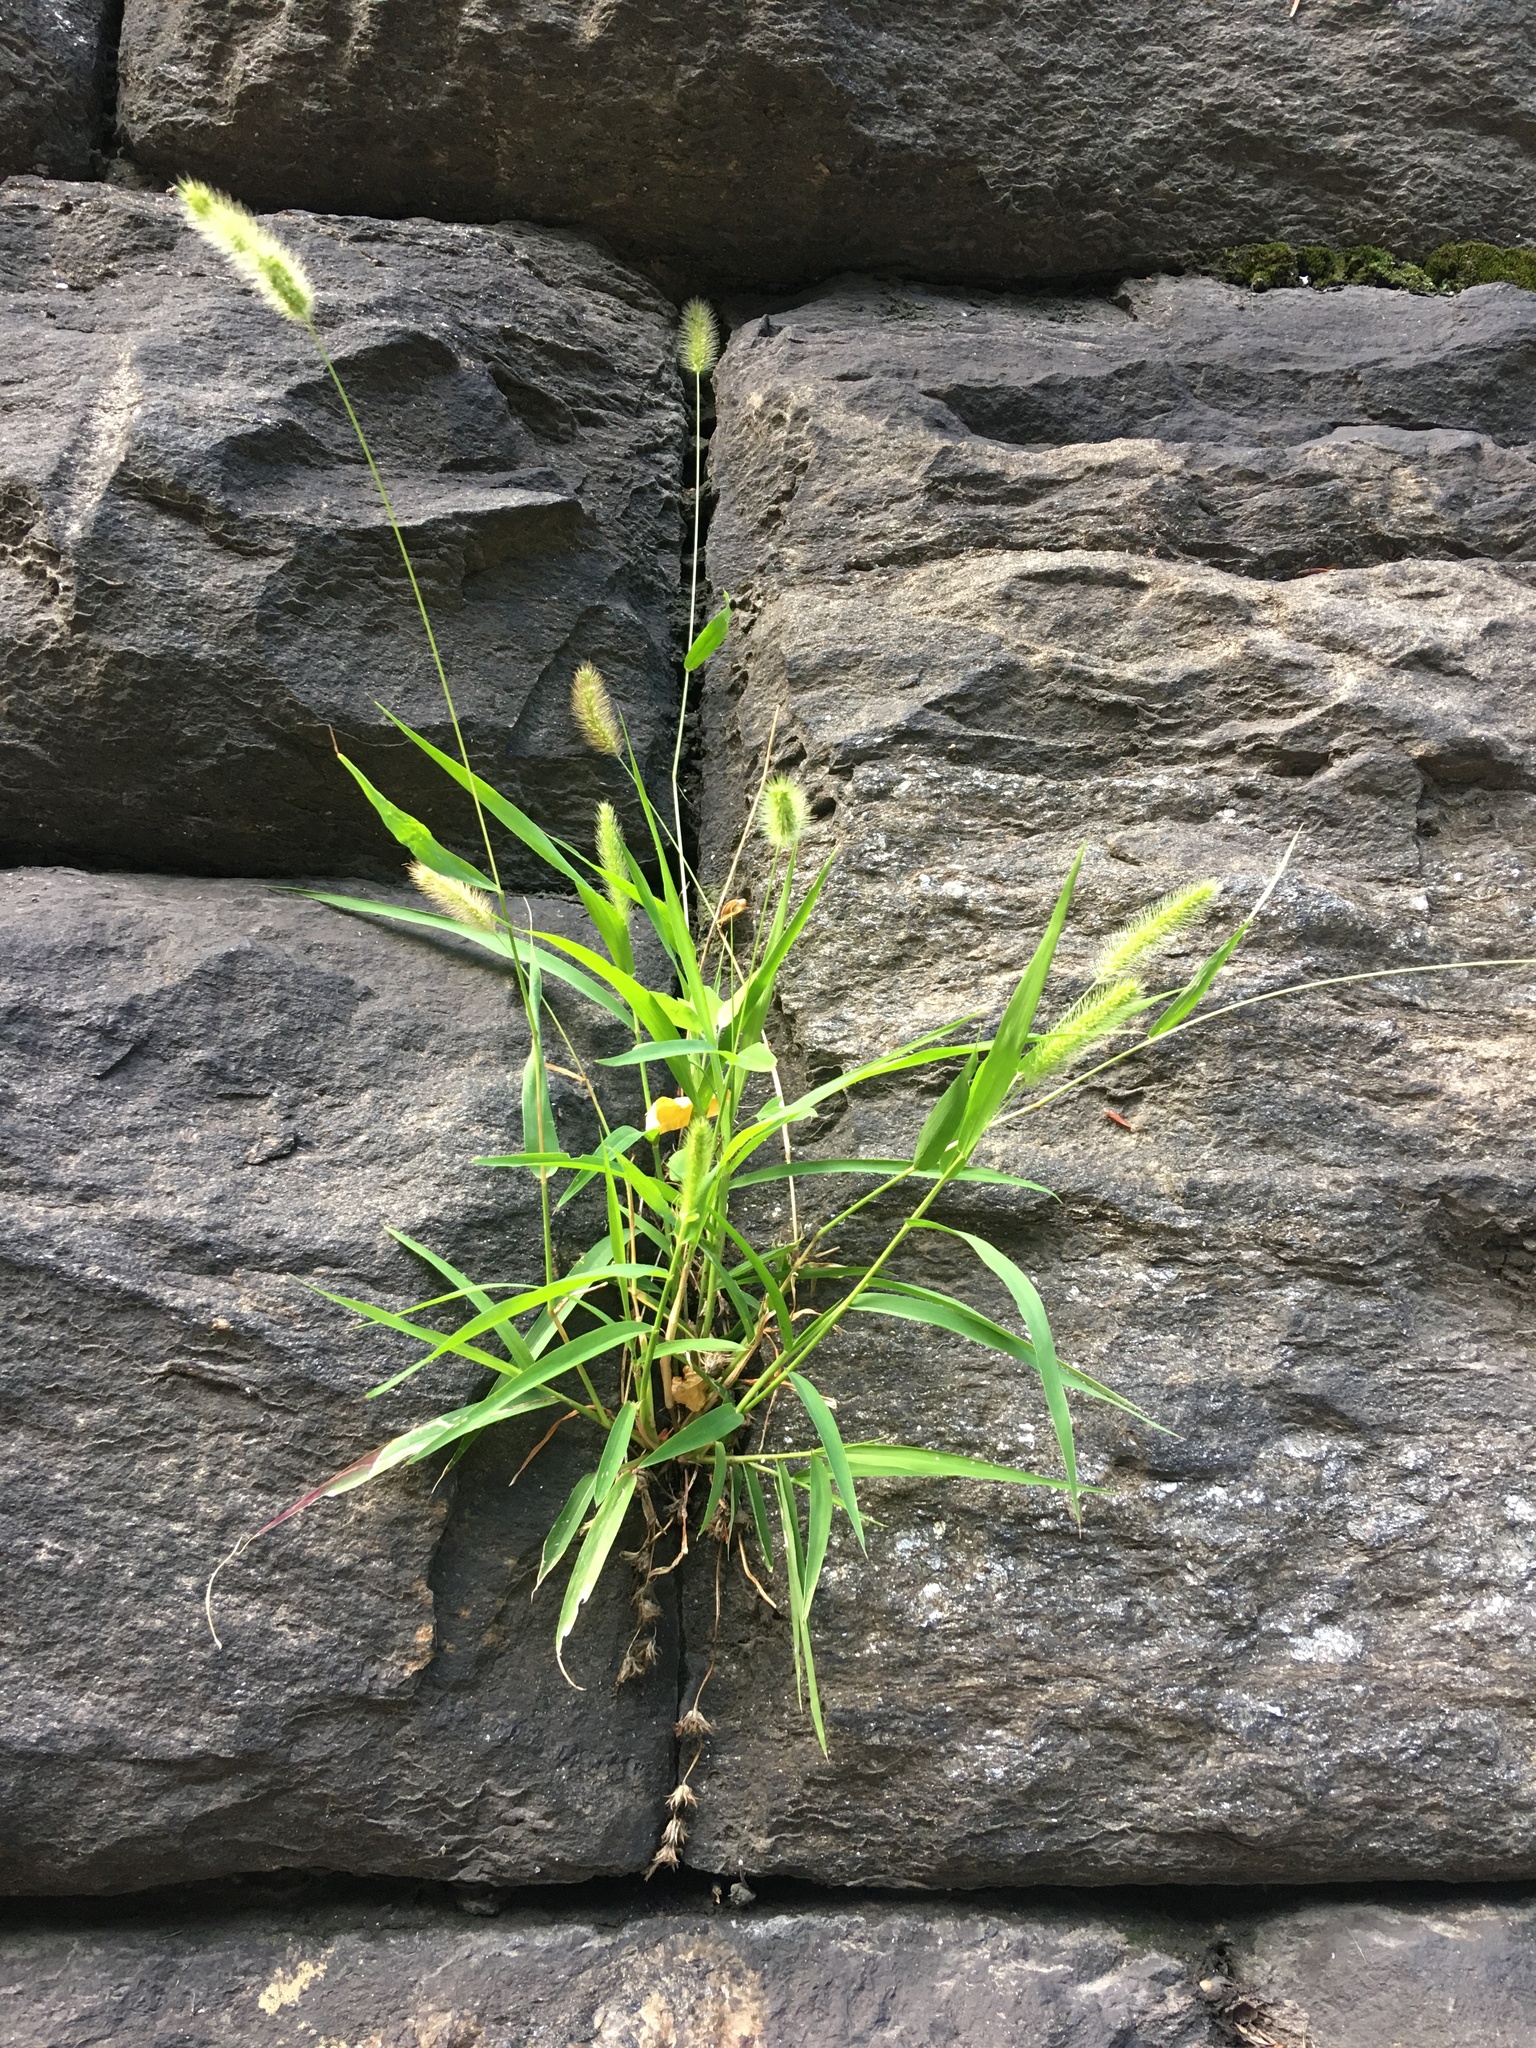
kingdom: Plantae
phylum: Tracheophyta
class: Liliopsida
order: Poales
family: Poaceae
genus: Setaria
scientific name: Setaria viridis
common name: Green bristlegrass
